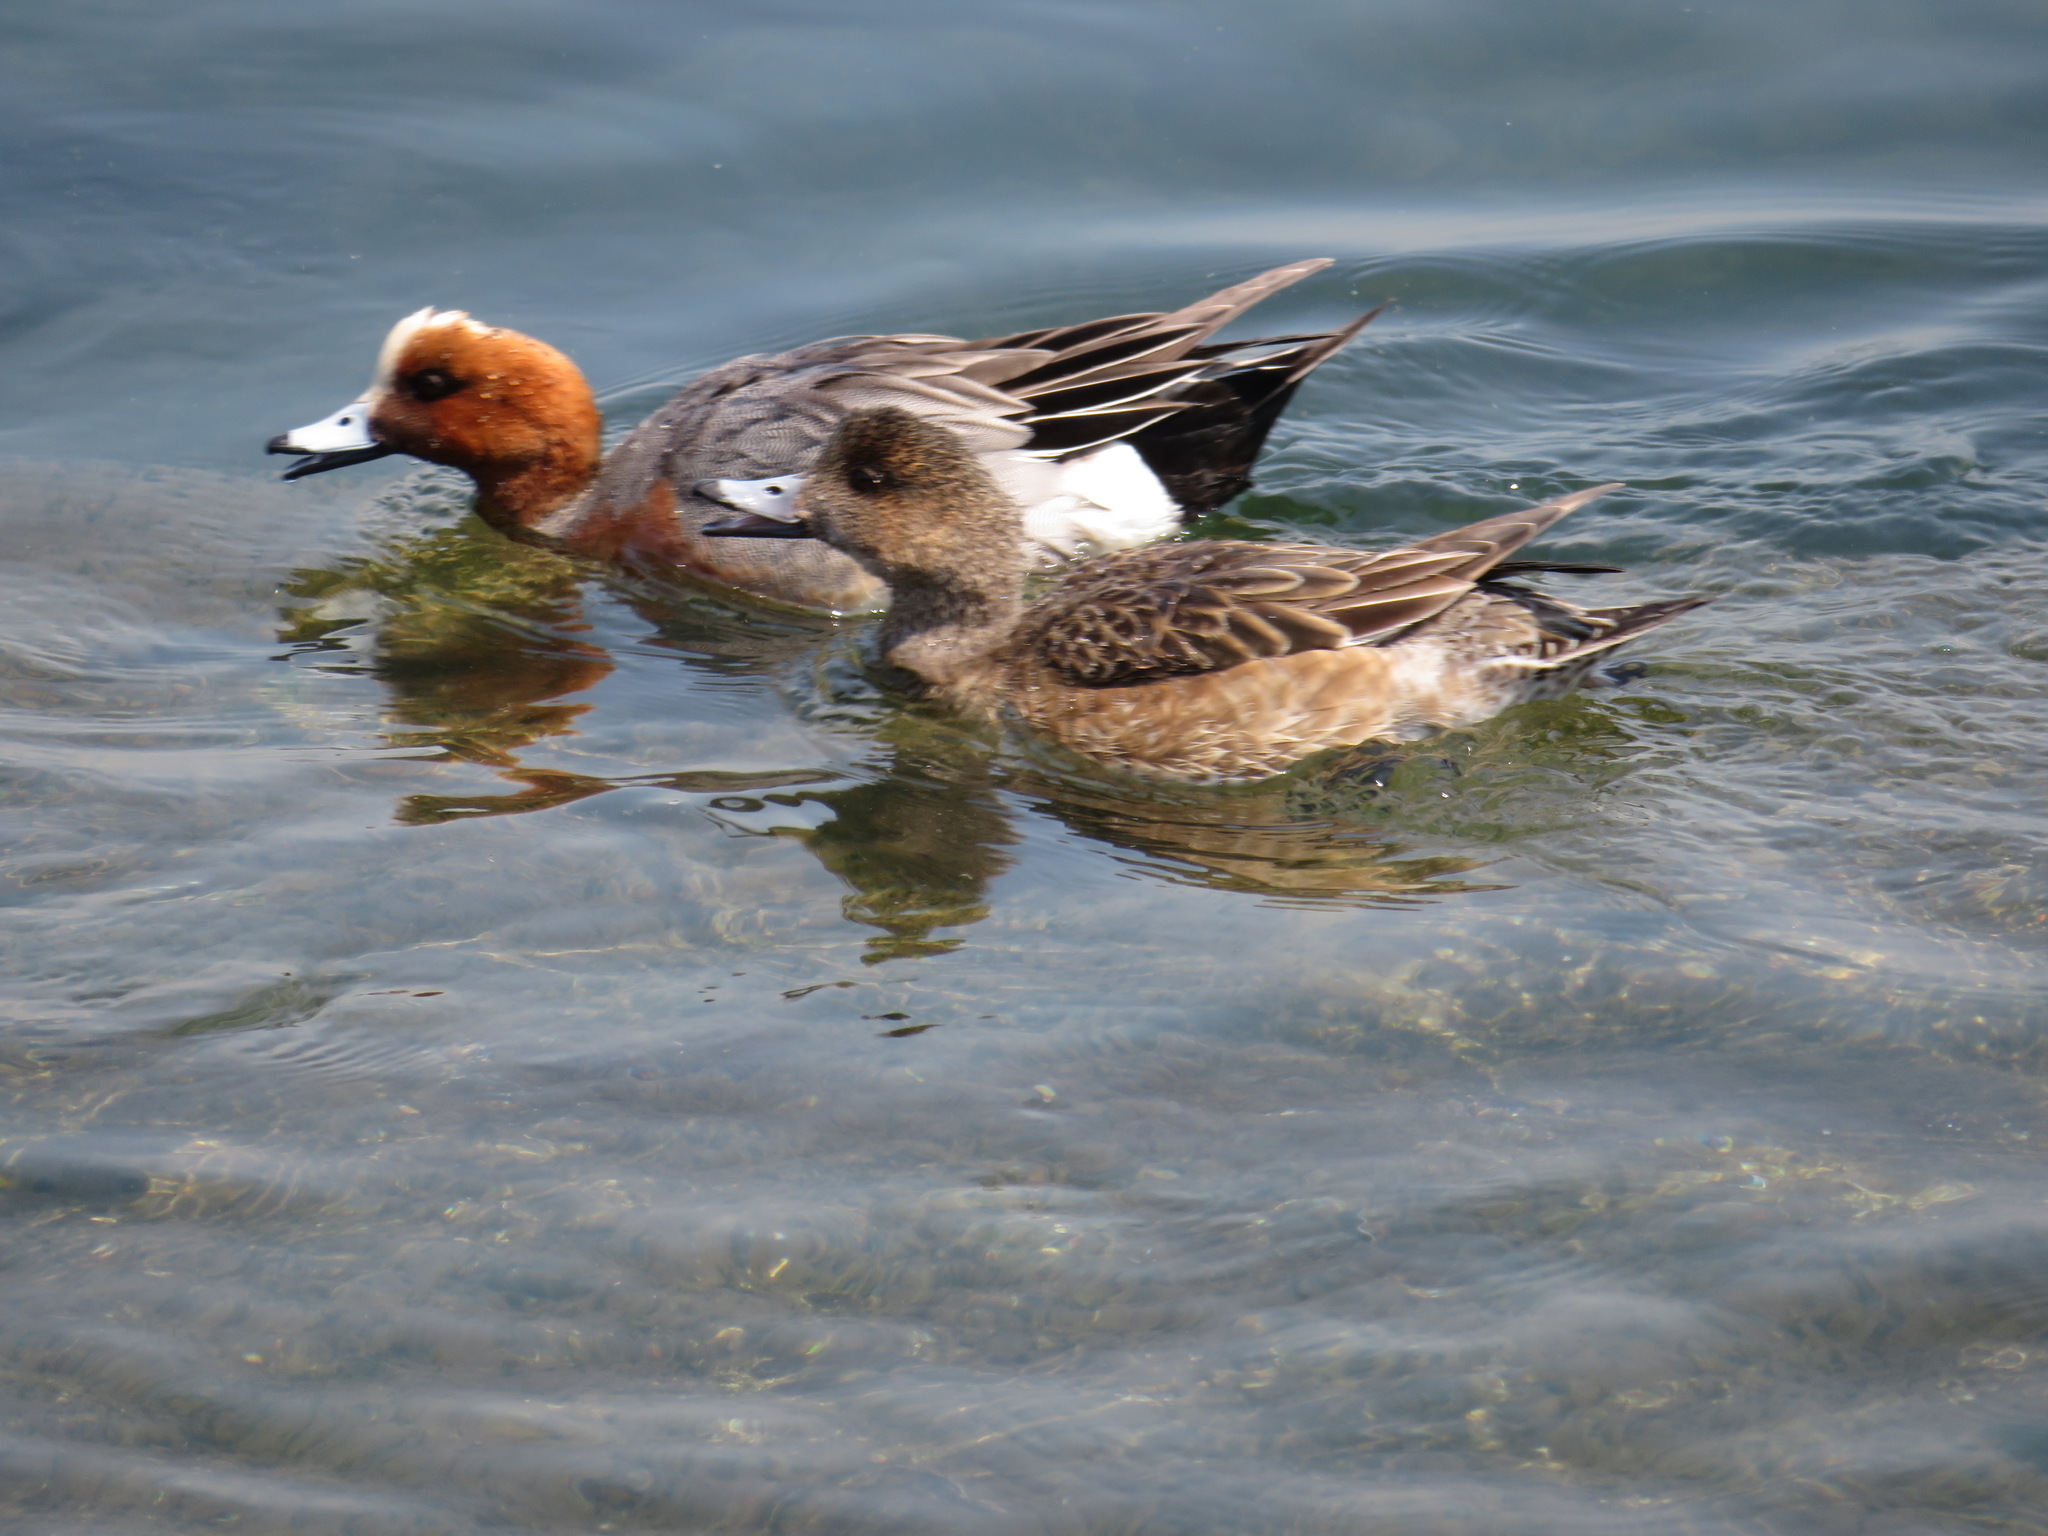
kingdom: Animalia
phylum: Chordata
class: Aves
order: Anseriformes
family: Anatidae
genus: Mareca
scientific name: Mareca penelope
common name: Eurasian wigeon
